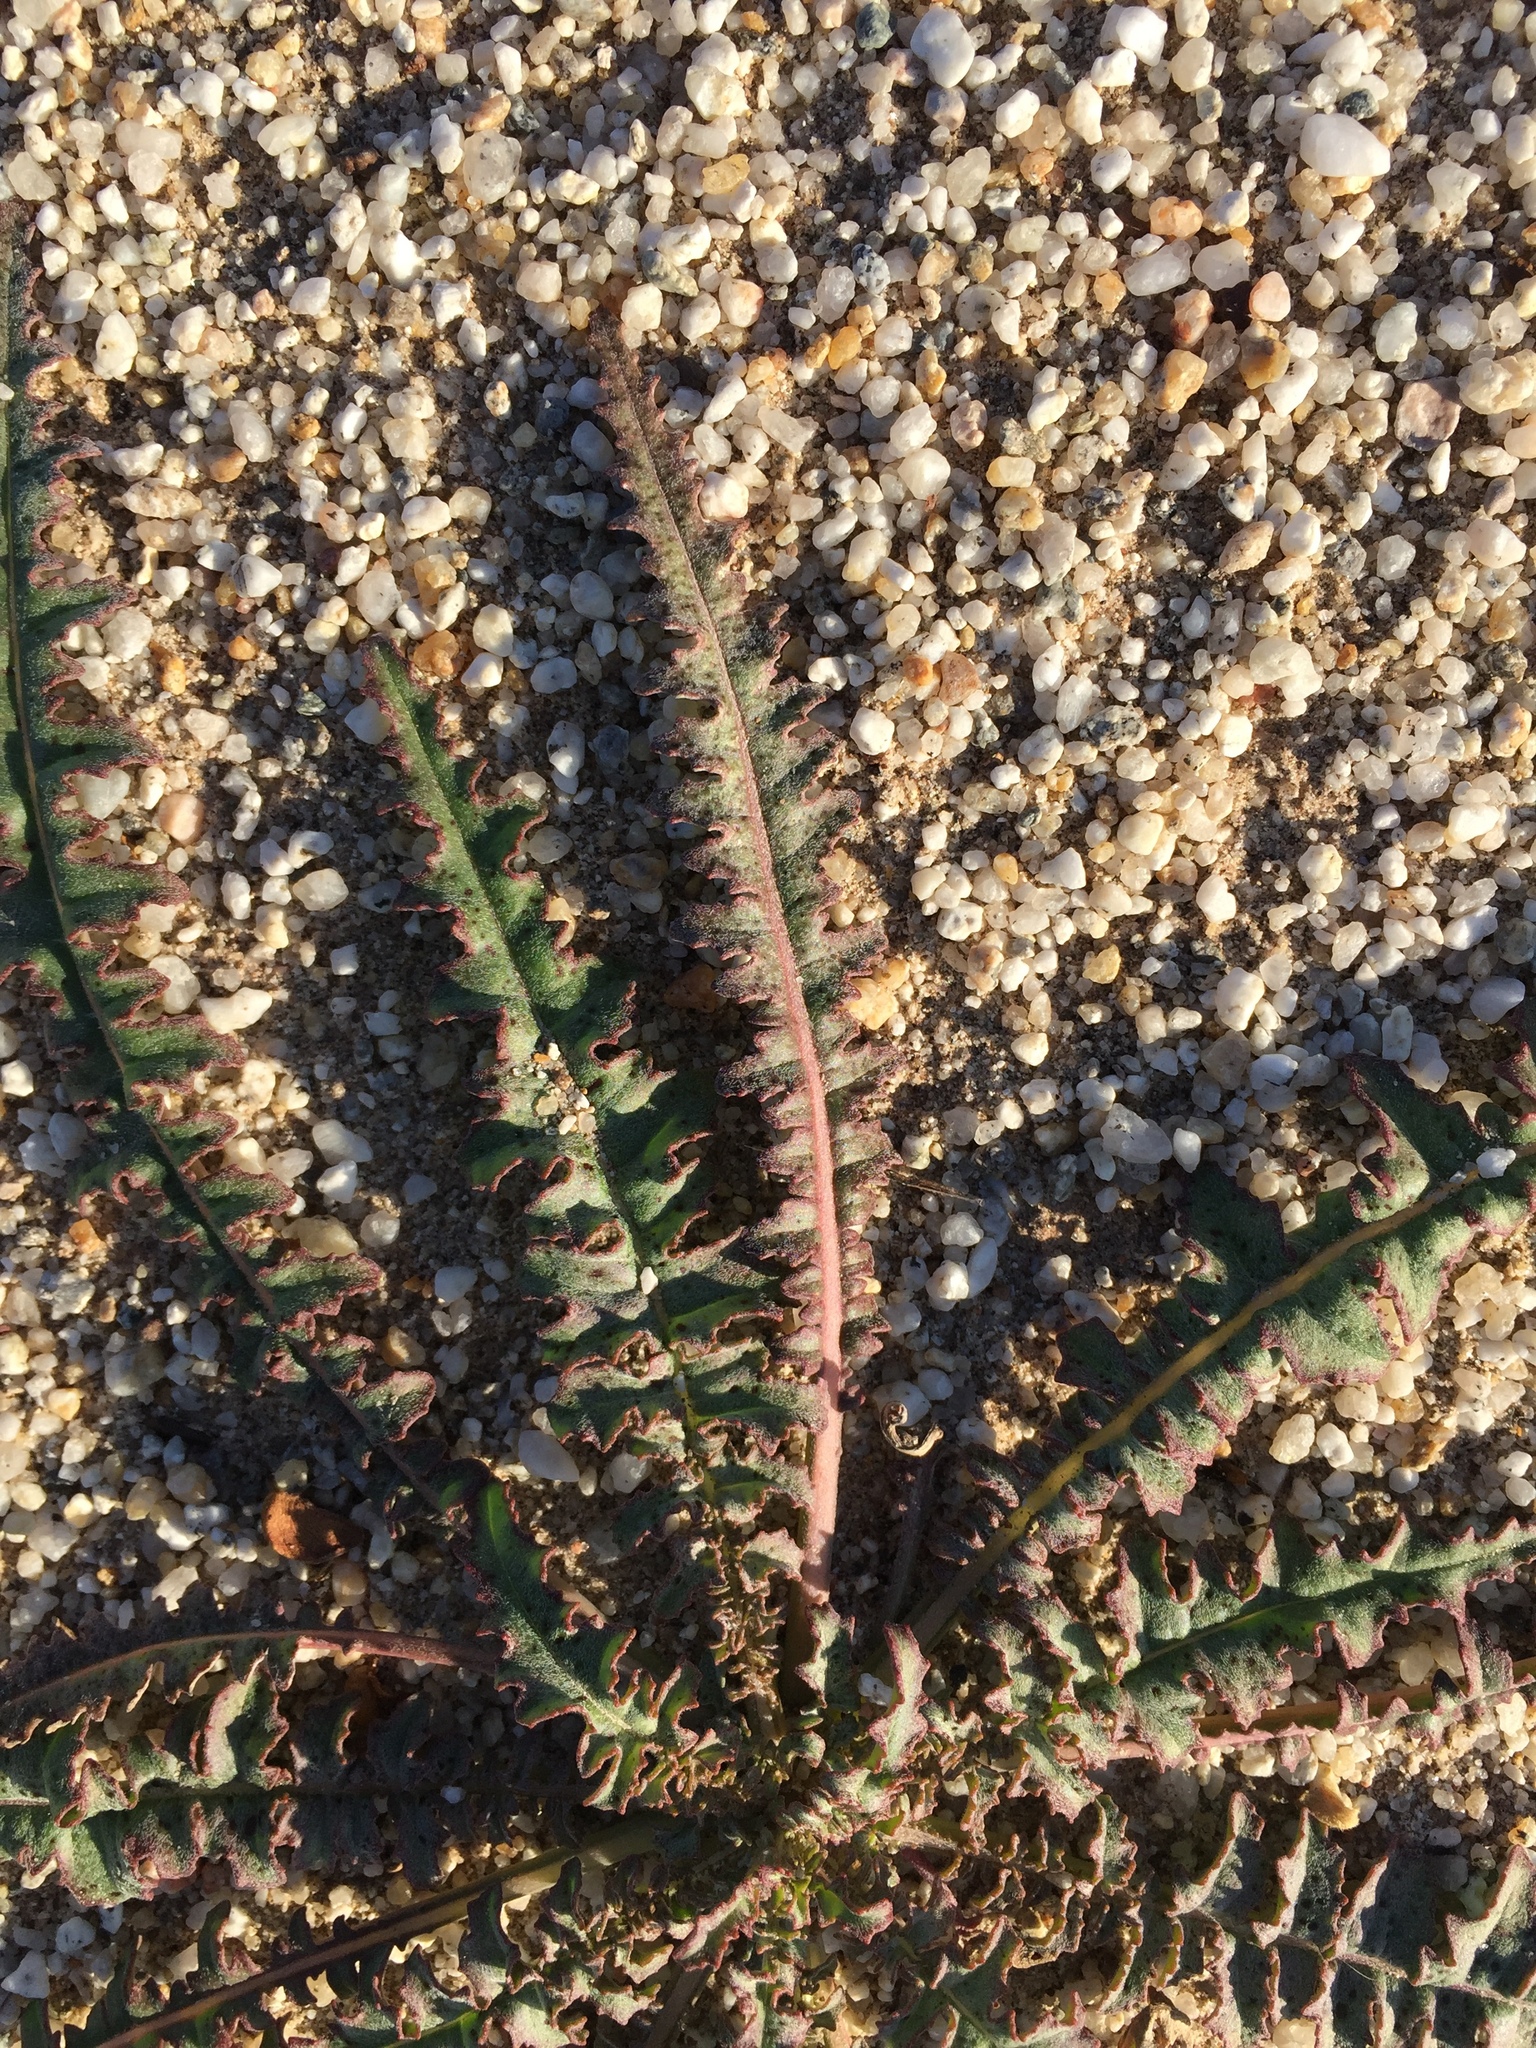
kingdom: Plantae
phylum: Tracheophyta
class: Magnoliopsida
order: Myrtales
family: Onagraceae
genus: Eulobus
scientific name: Eulobus californicus
